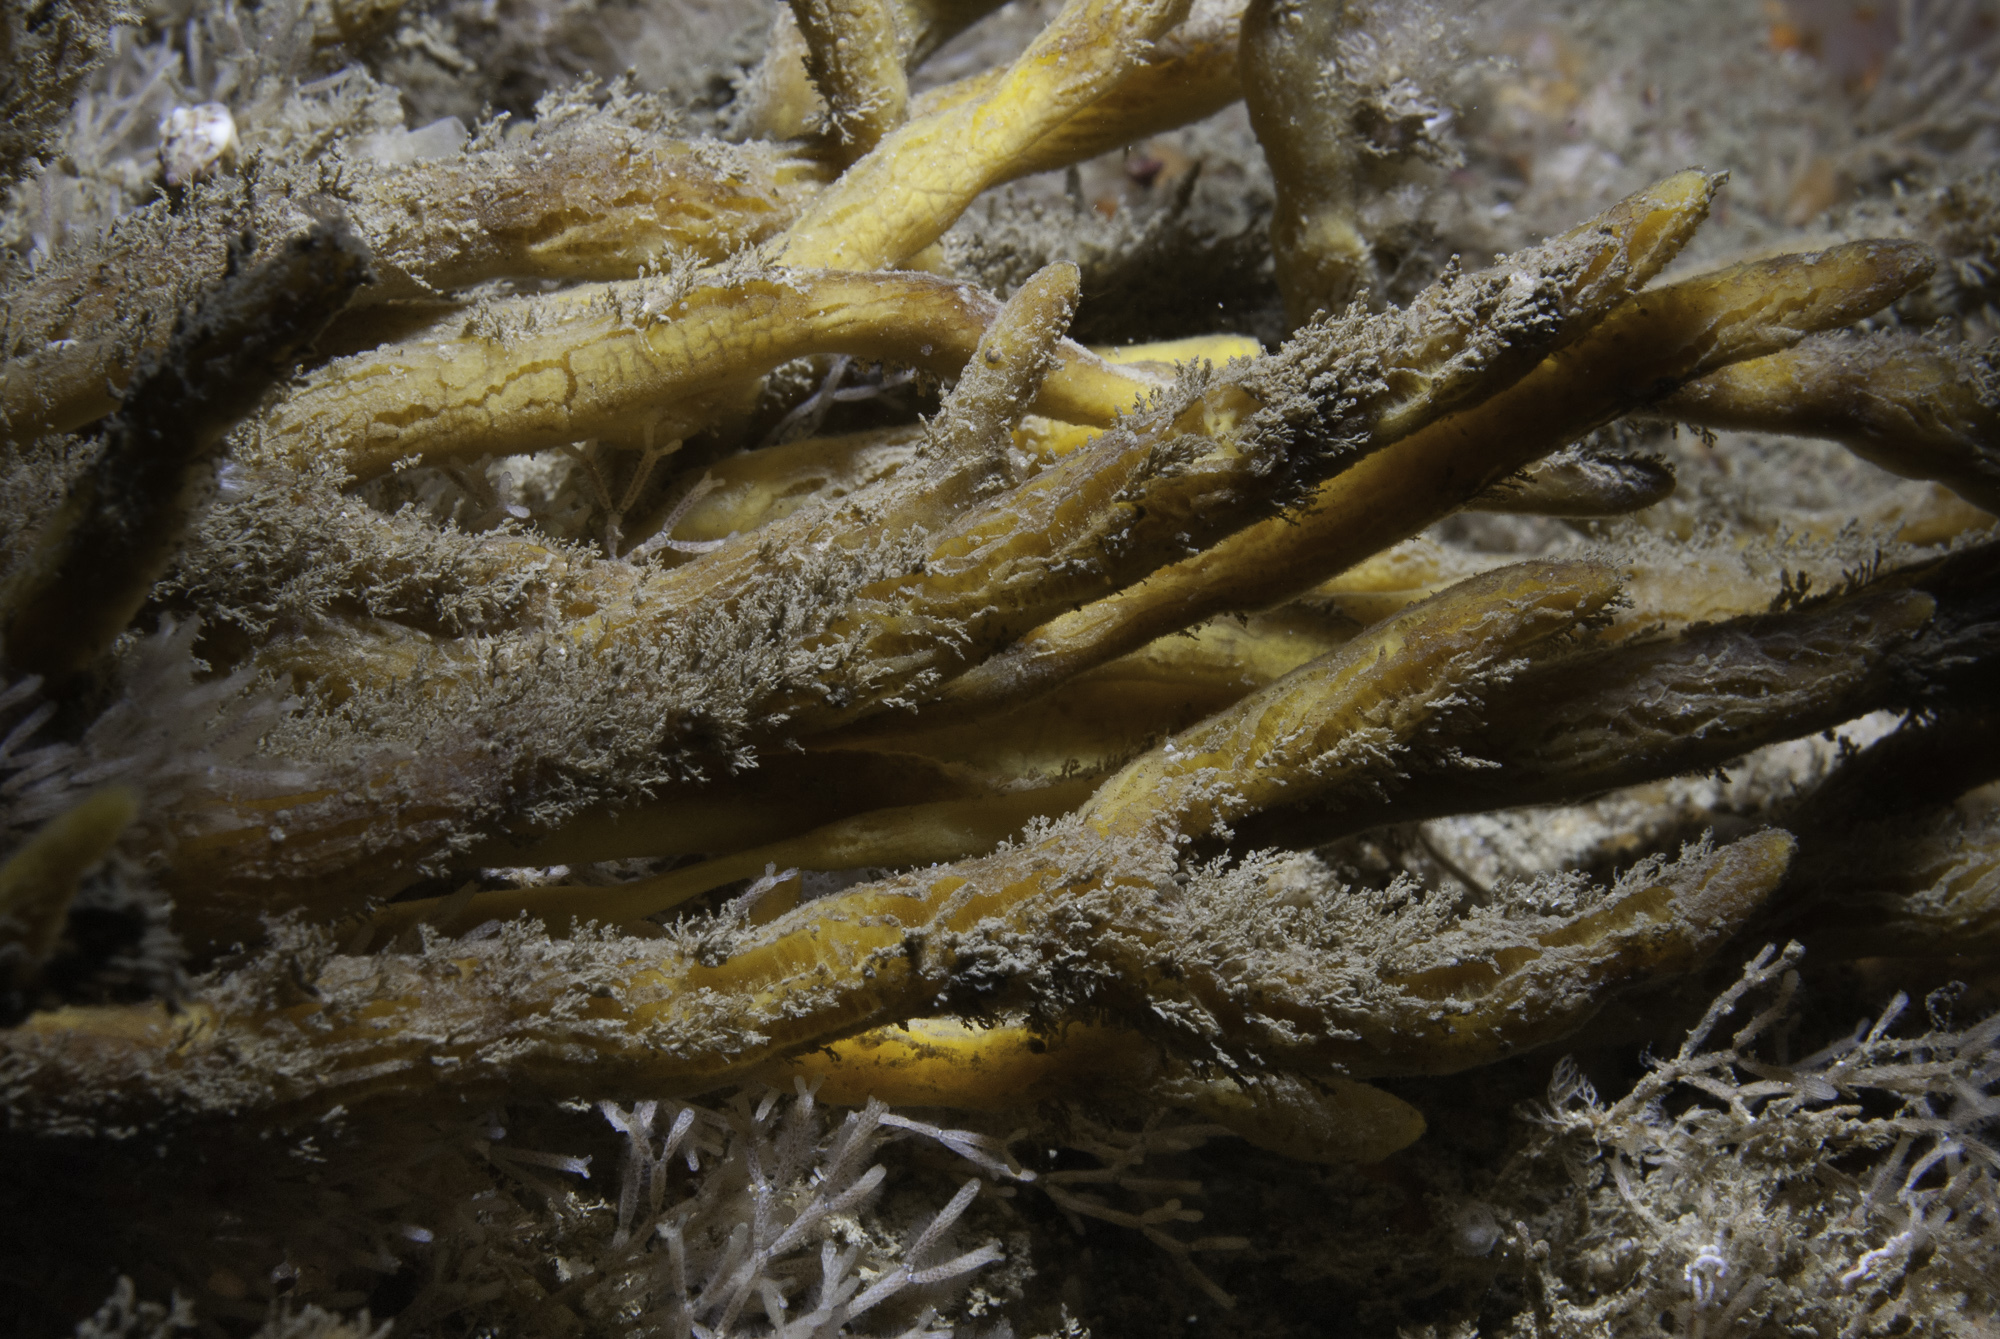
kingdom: Animalia
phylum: Porifera
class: Demospongiae
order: Tethyida
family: Hemiasterellidae
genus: Adreus
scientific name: Adreus fascicularis
